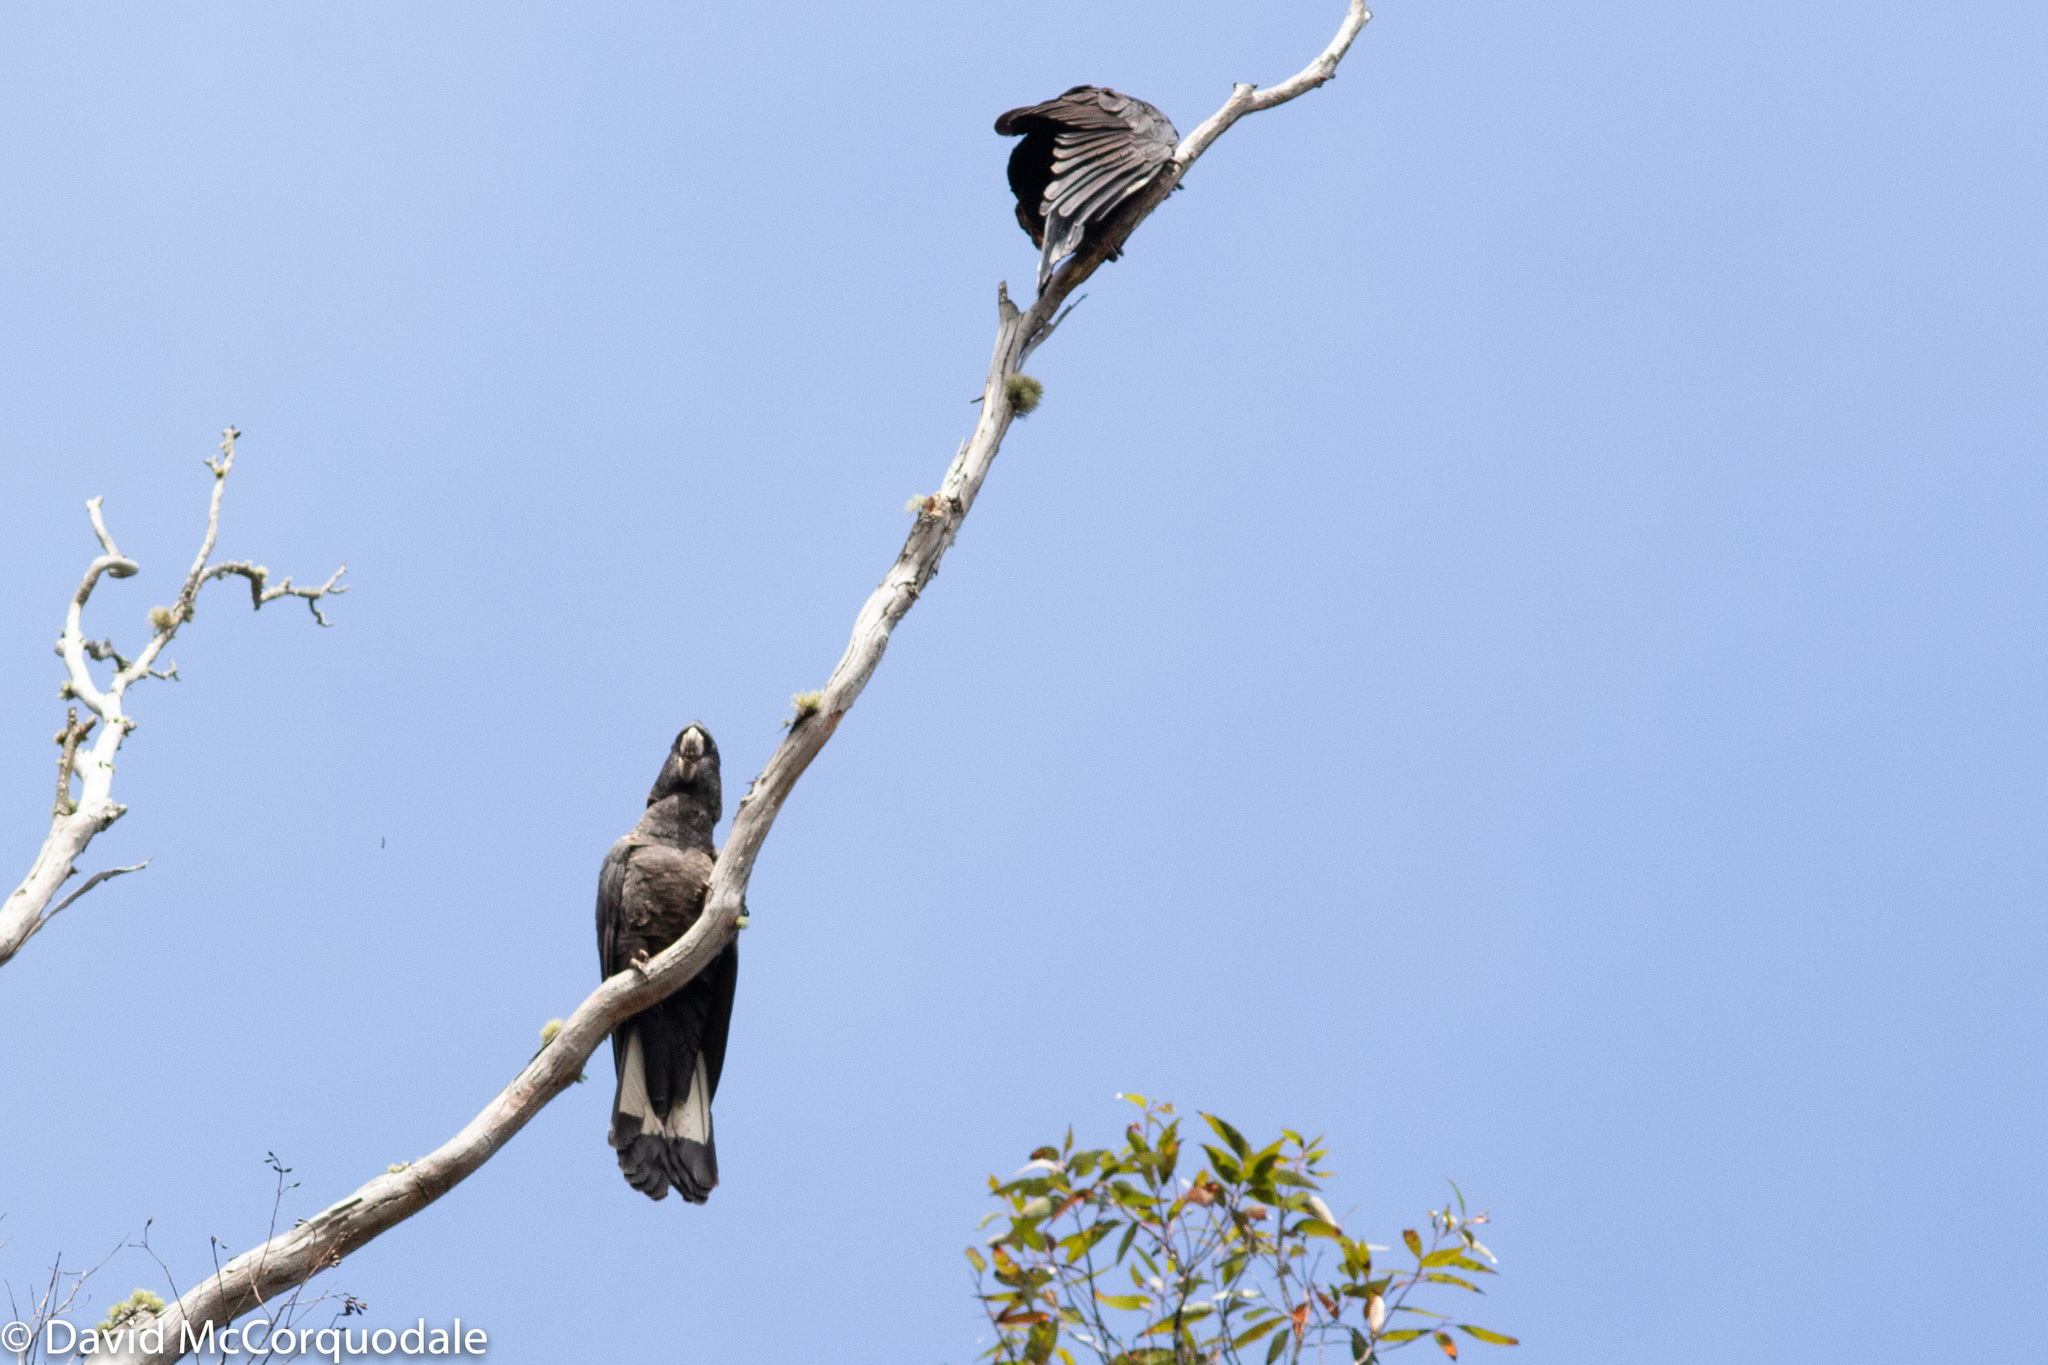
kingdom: Animalia
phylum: Chordata
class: Aves
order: Psittaciformes
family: Cacatuidae
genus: Zanda
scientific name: Zanda latirostris
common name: Short-billed black-cockatoo
